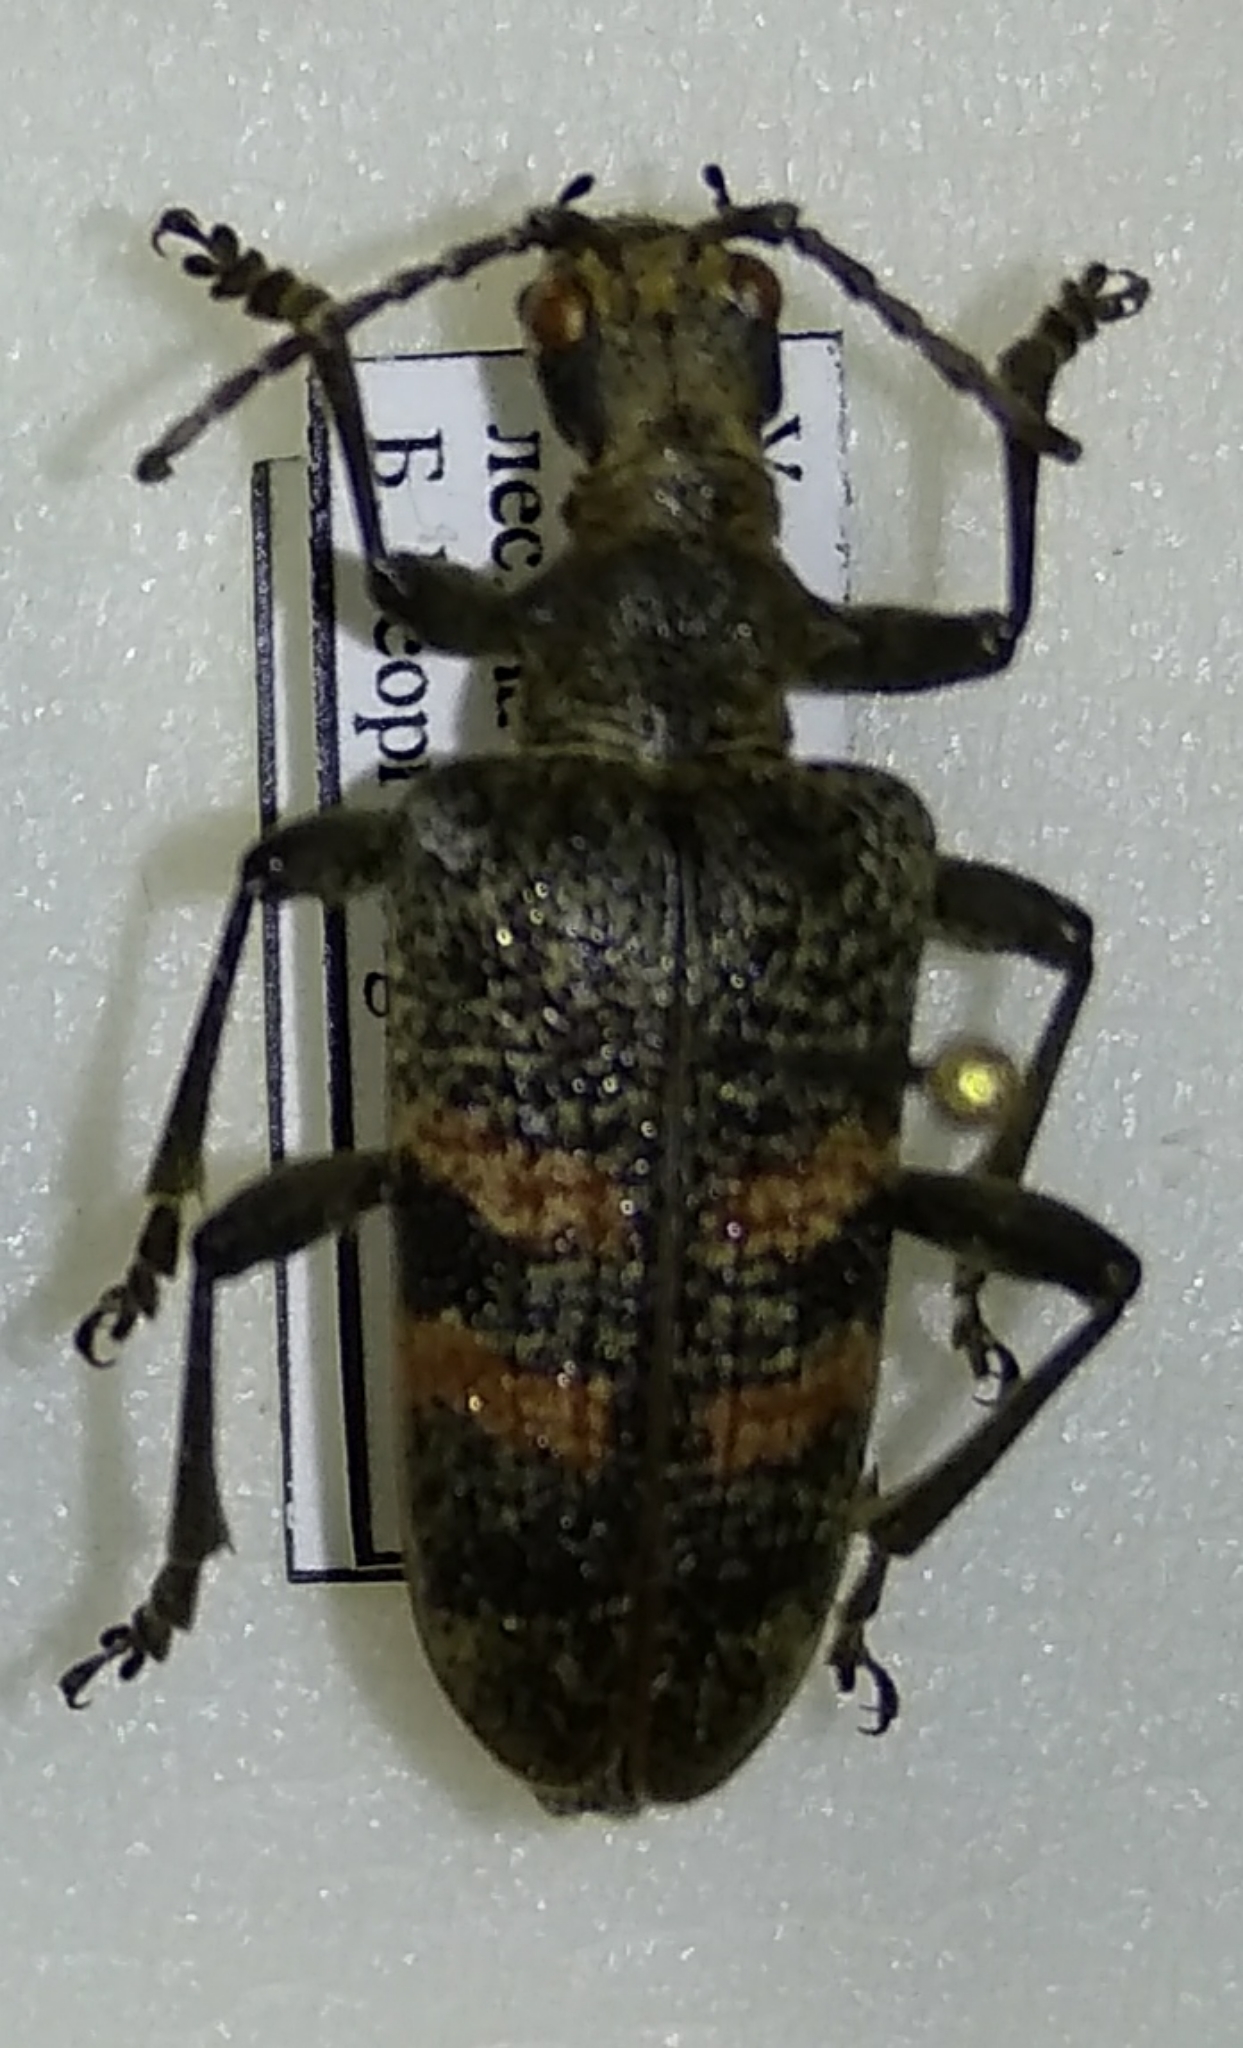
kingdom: Animalia
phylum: Arthropoda
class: Insecta
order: Coleoptera
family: Cerambycidae
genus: Rhagium
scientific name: Rhagium mordax
